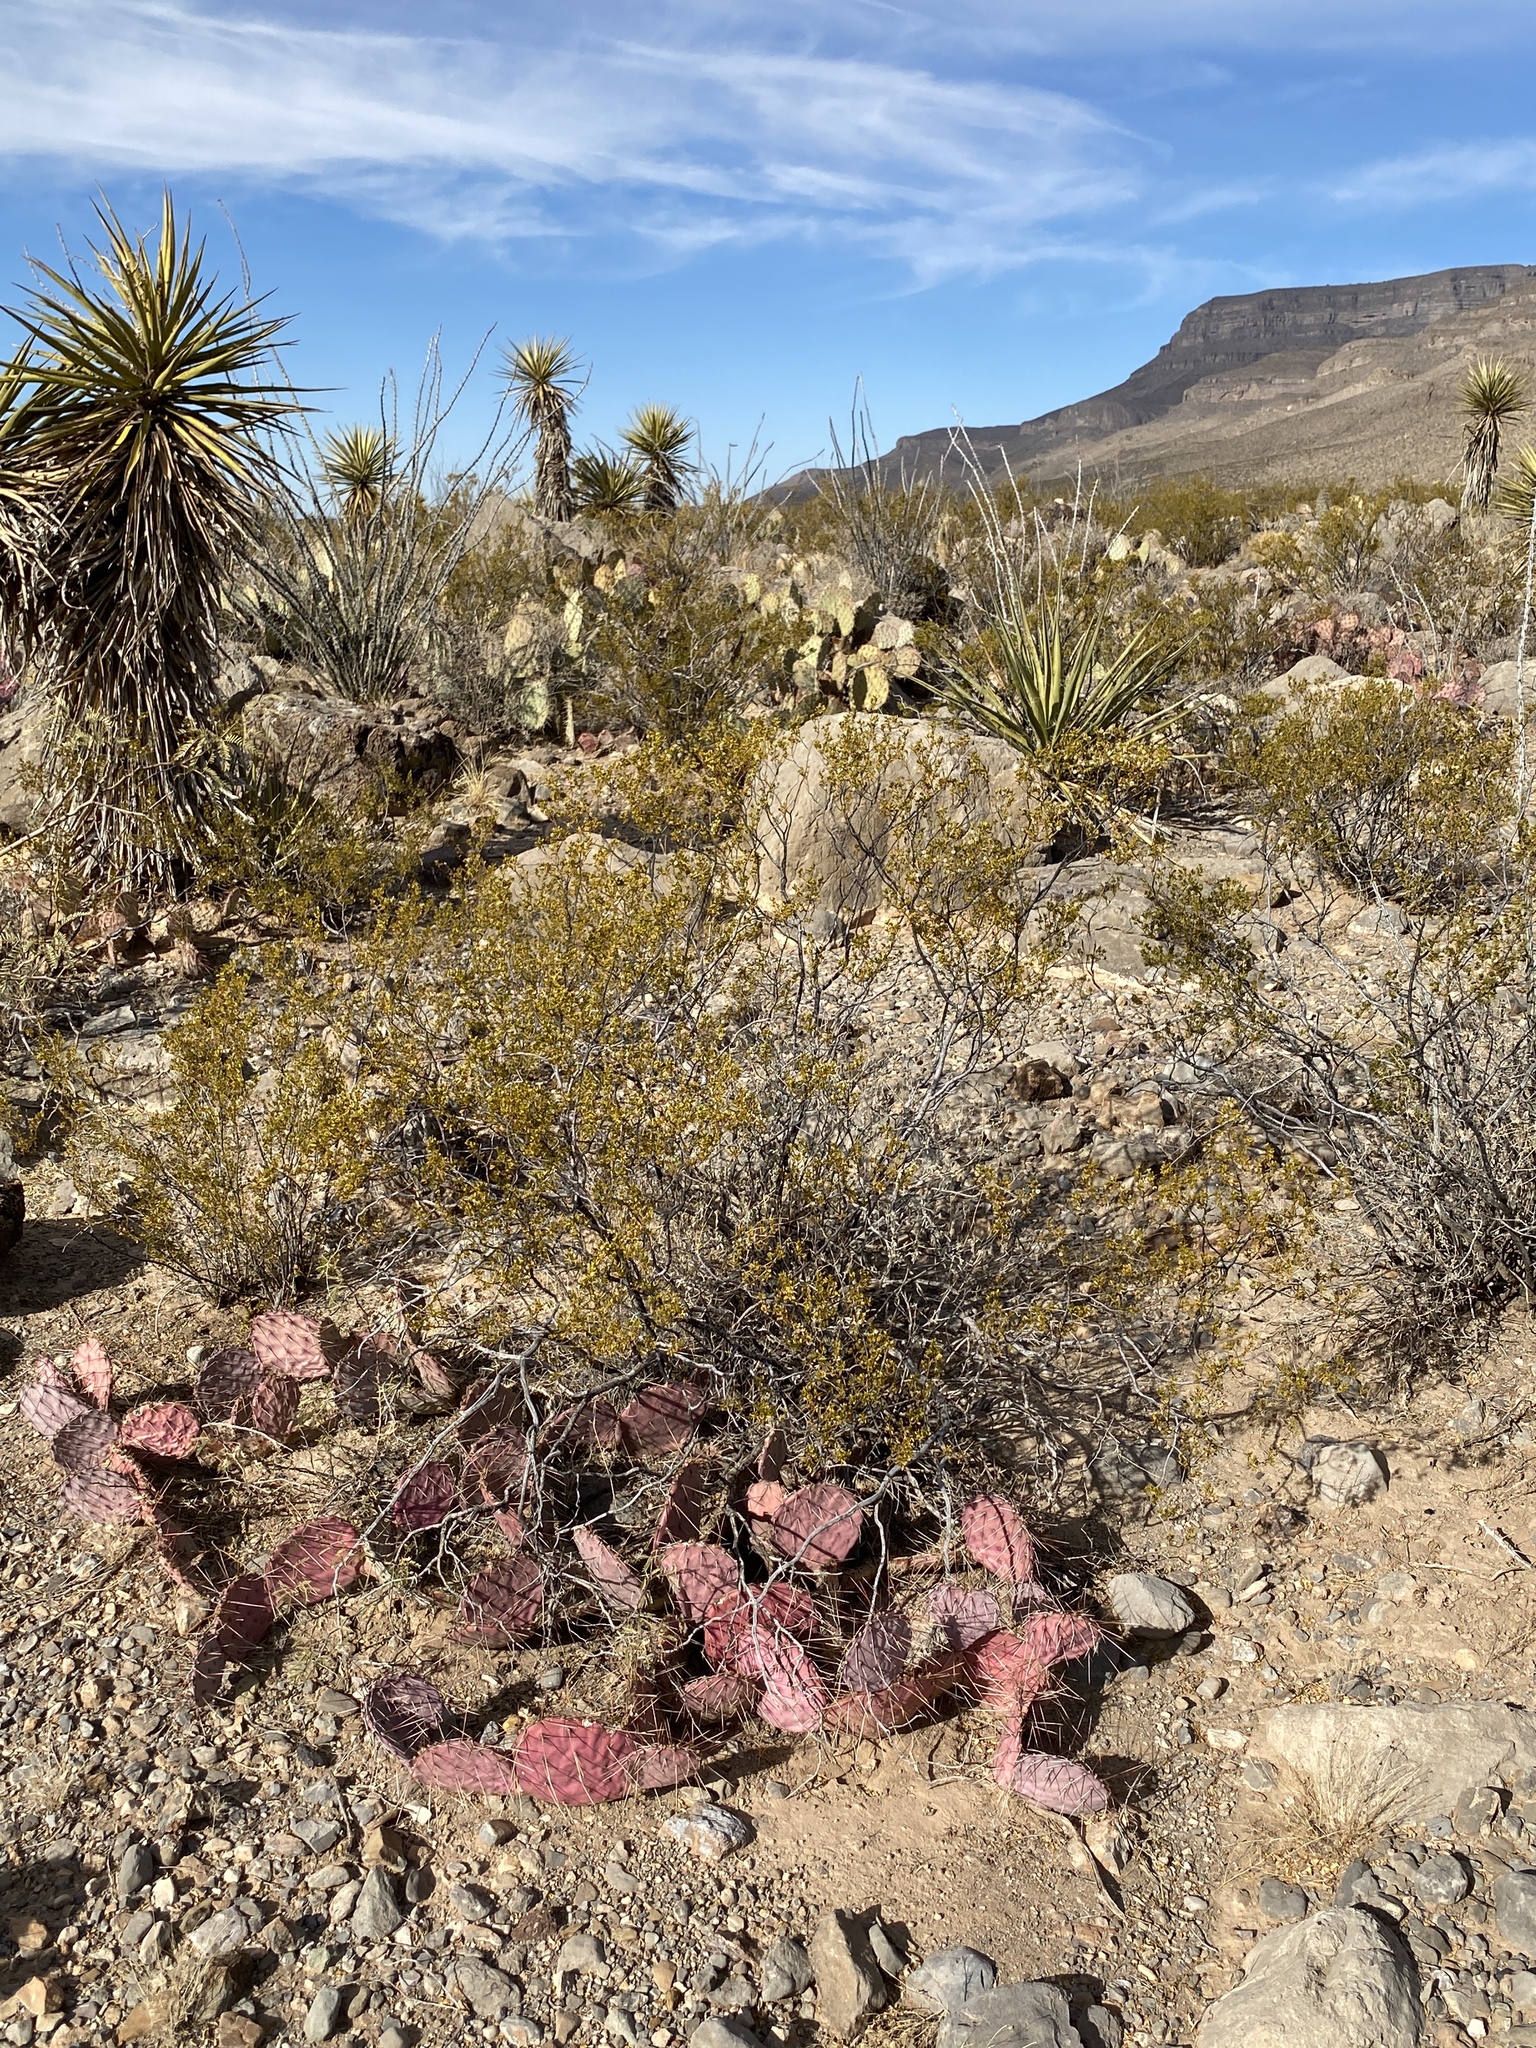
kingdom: Plantae
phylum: Tracheophyta
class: Magnoliopsida
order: Zygophyllales
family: Zygophyllaceae
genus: Larrea
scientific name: Larrea tridentata
